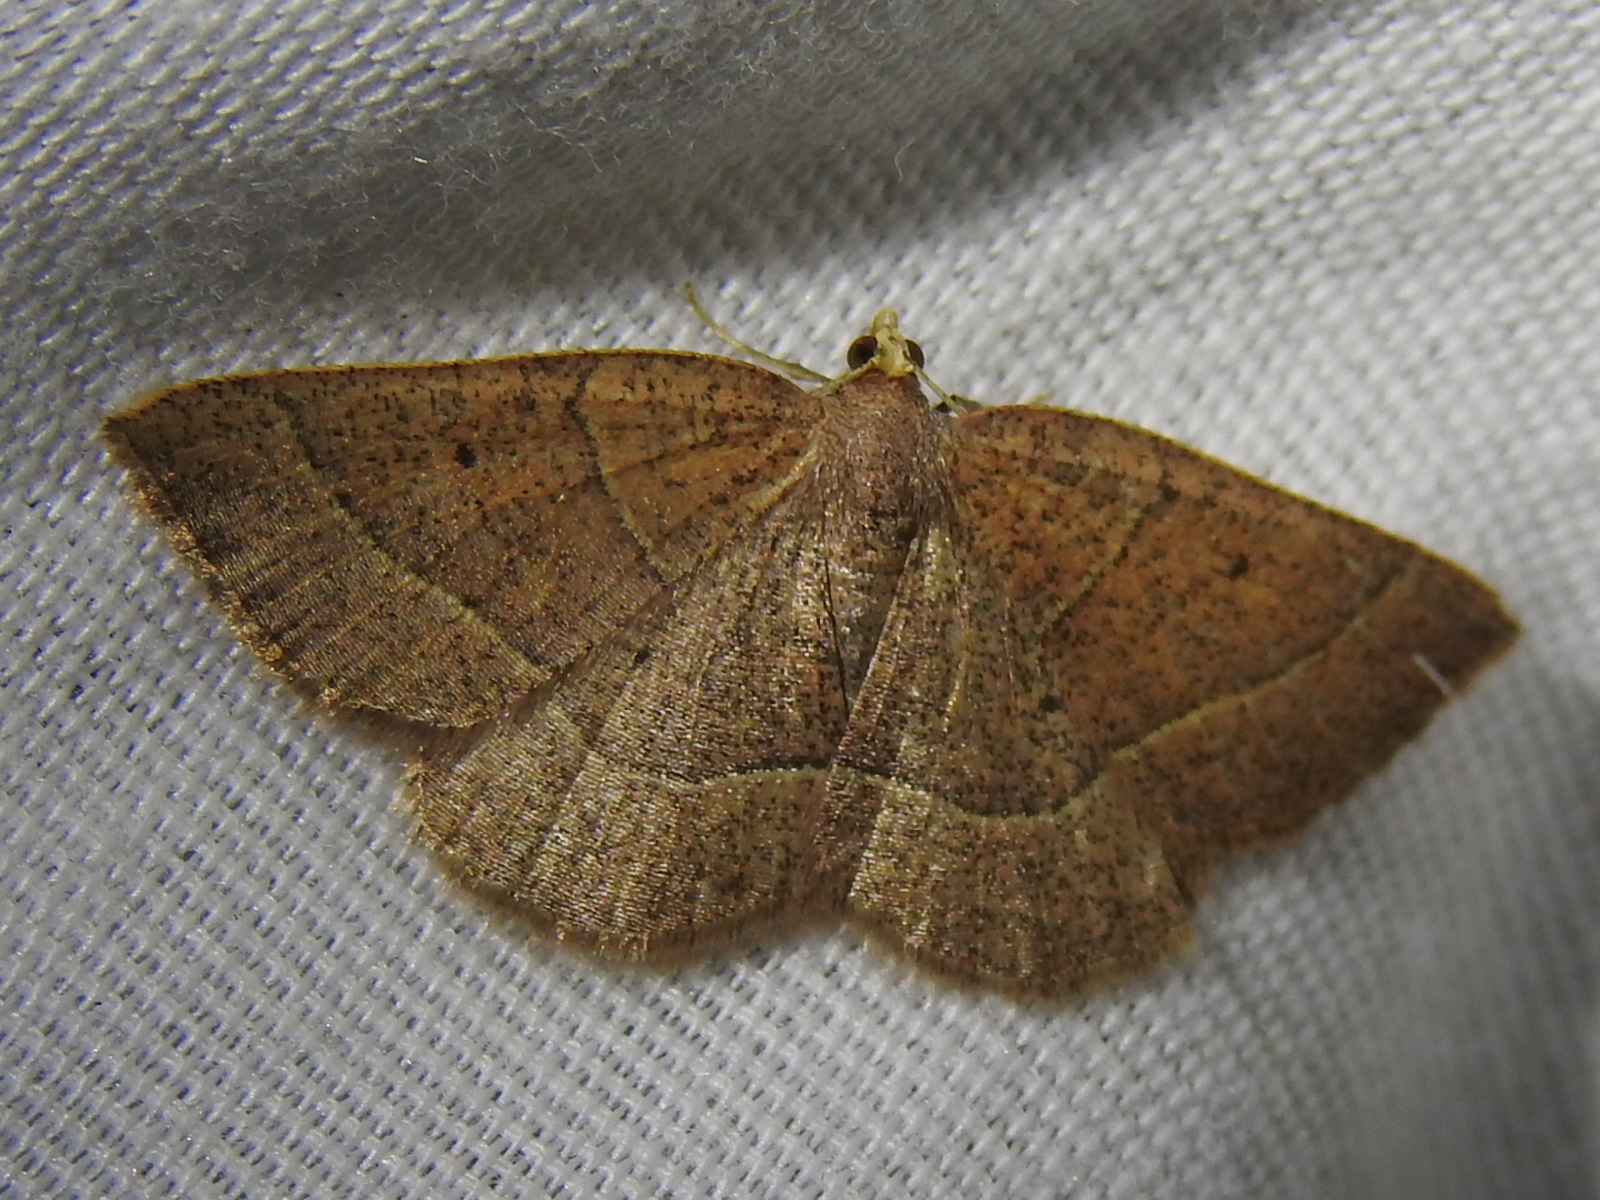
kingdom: Animalia
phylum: Arthropoda
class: Insecta
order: Lepidoptera
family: Geometridae
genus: Episemasia
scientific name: Episemasia cervinaria
